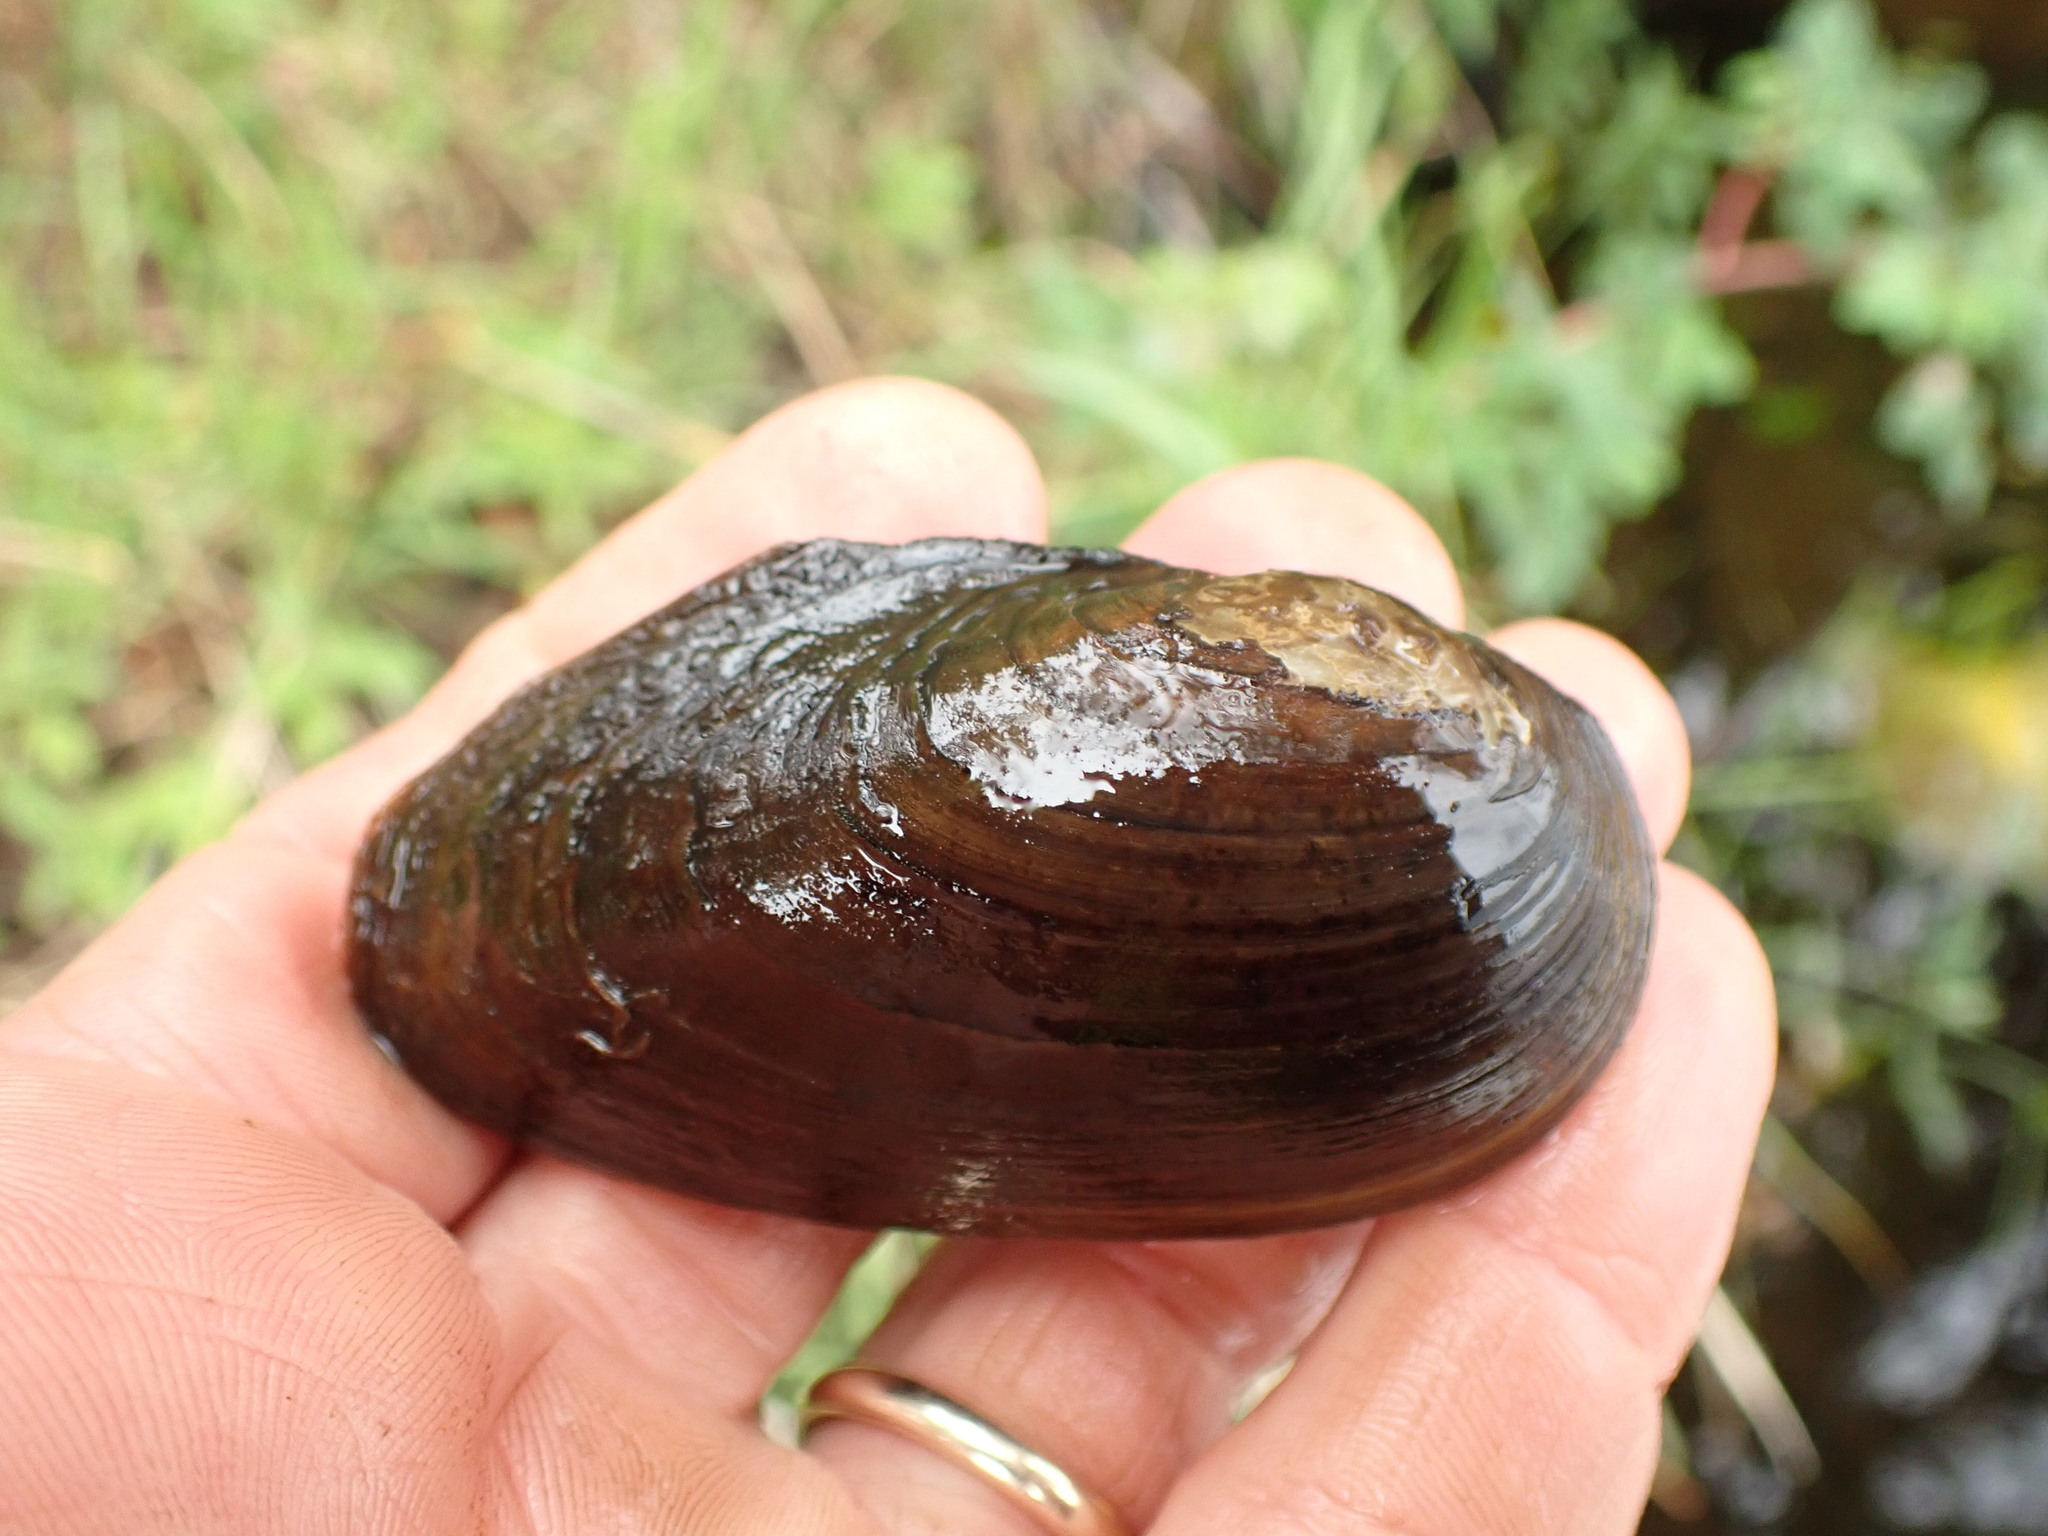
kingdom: Animalia
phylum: Mollusca
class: Bivalvia
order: Unionida
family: Unionidae
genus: Beringiana
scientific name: Beringiana beringiana
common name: Yukon floater
